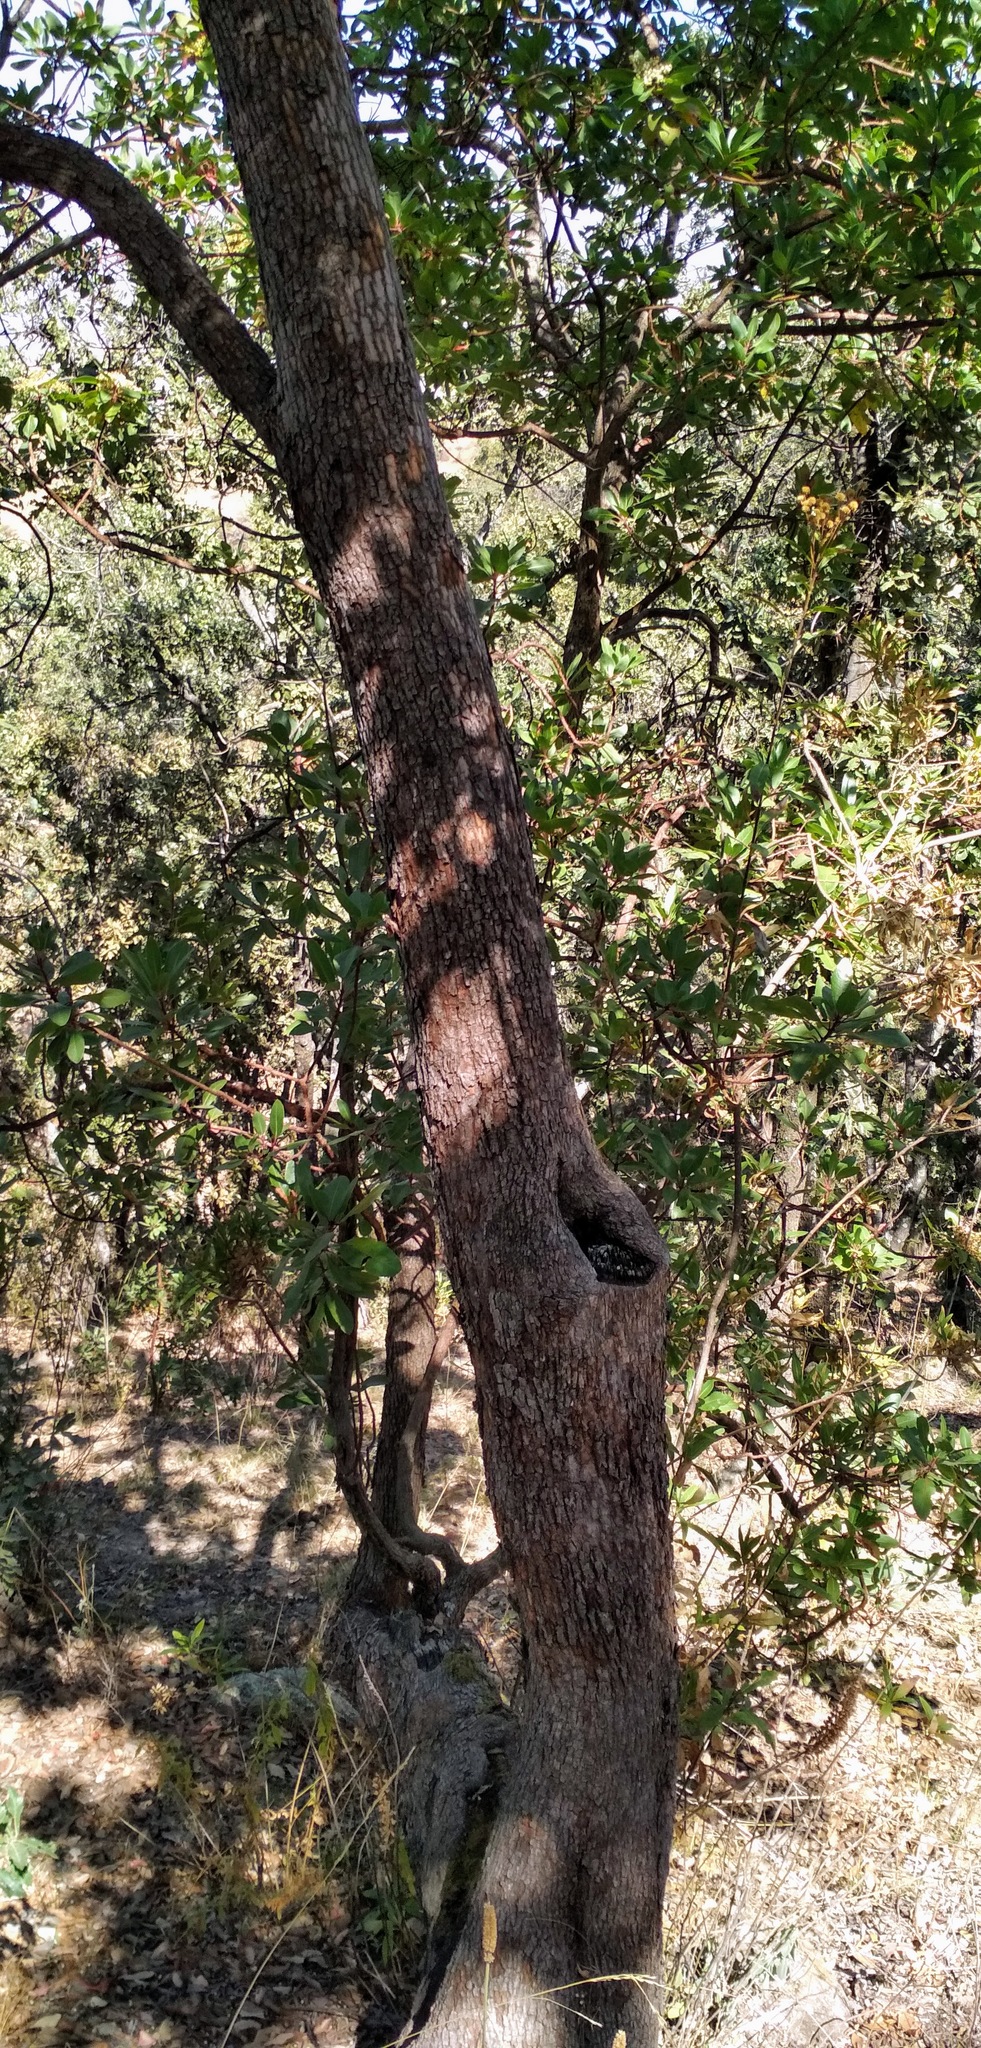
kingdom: Plantae
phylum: Tracheophyta
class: Magnoliopsida
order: Ericales
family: Ericaceae
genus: Arbutus
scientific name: Arbutus xalapensis
